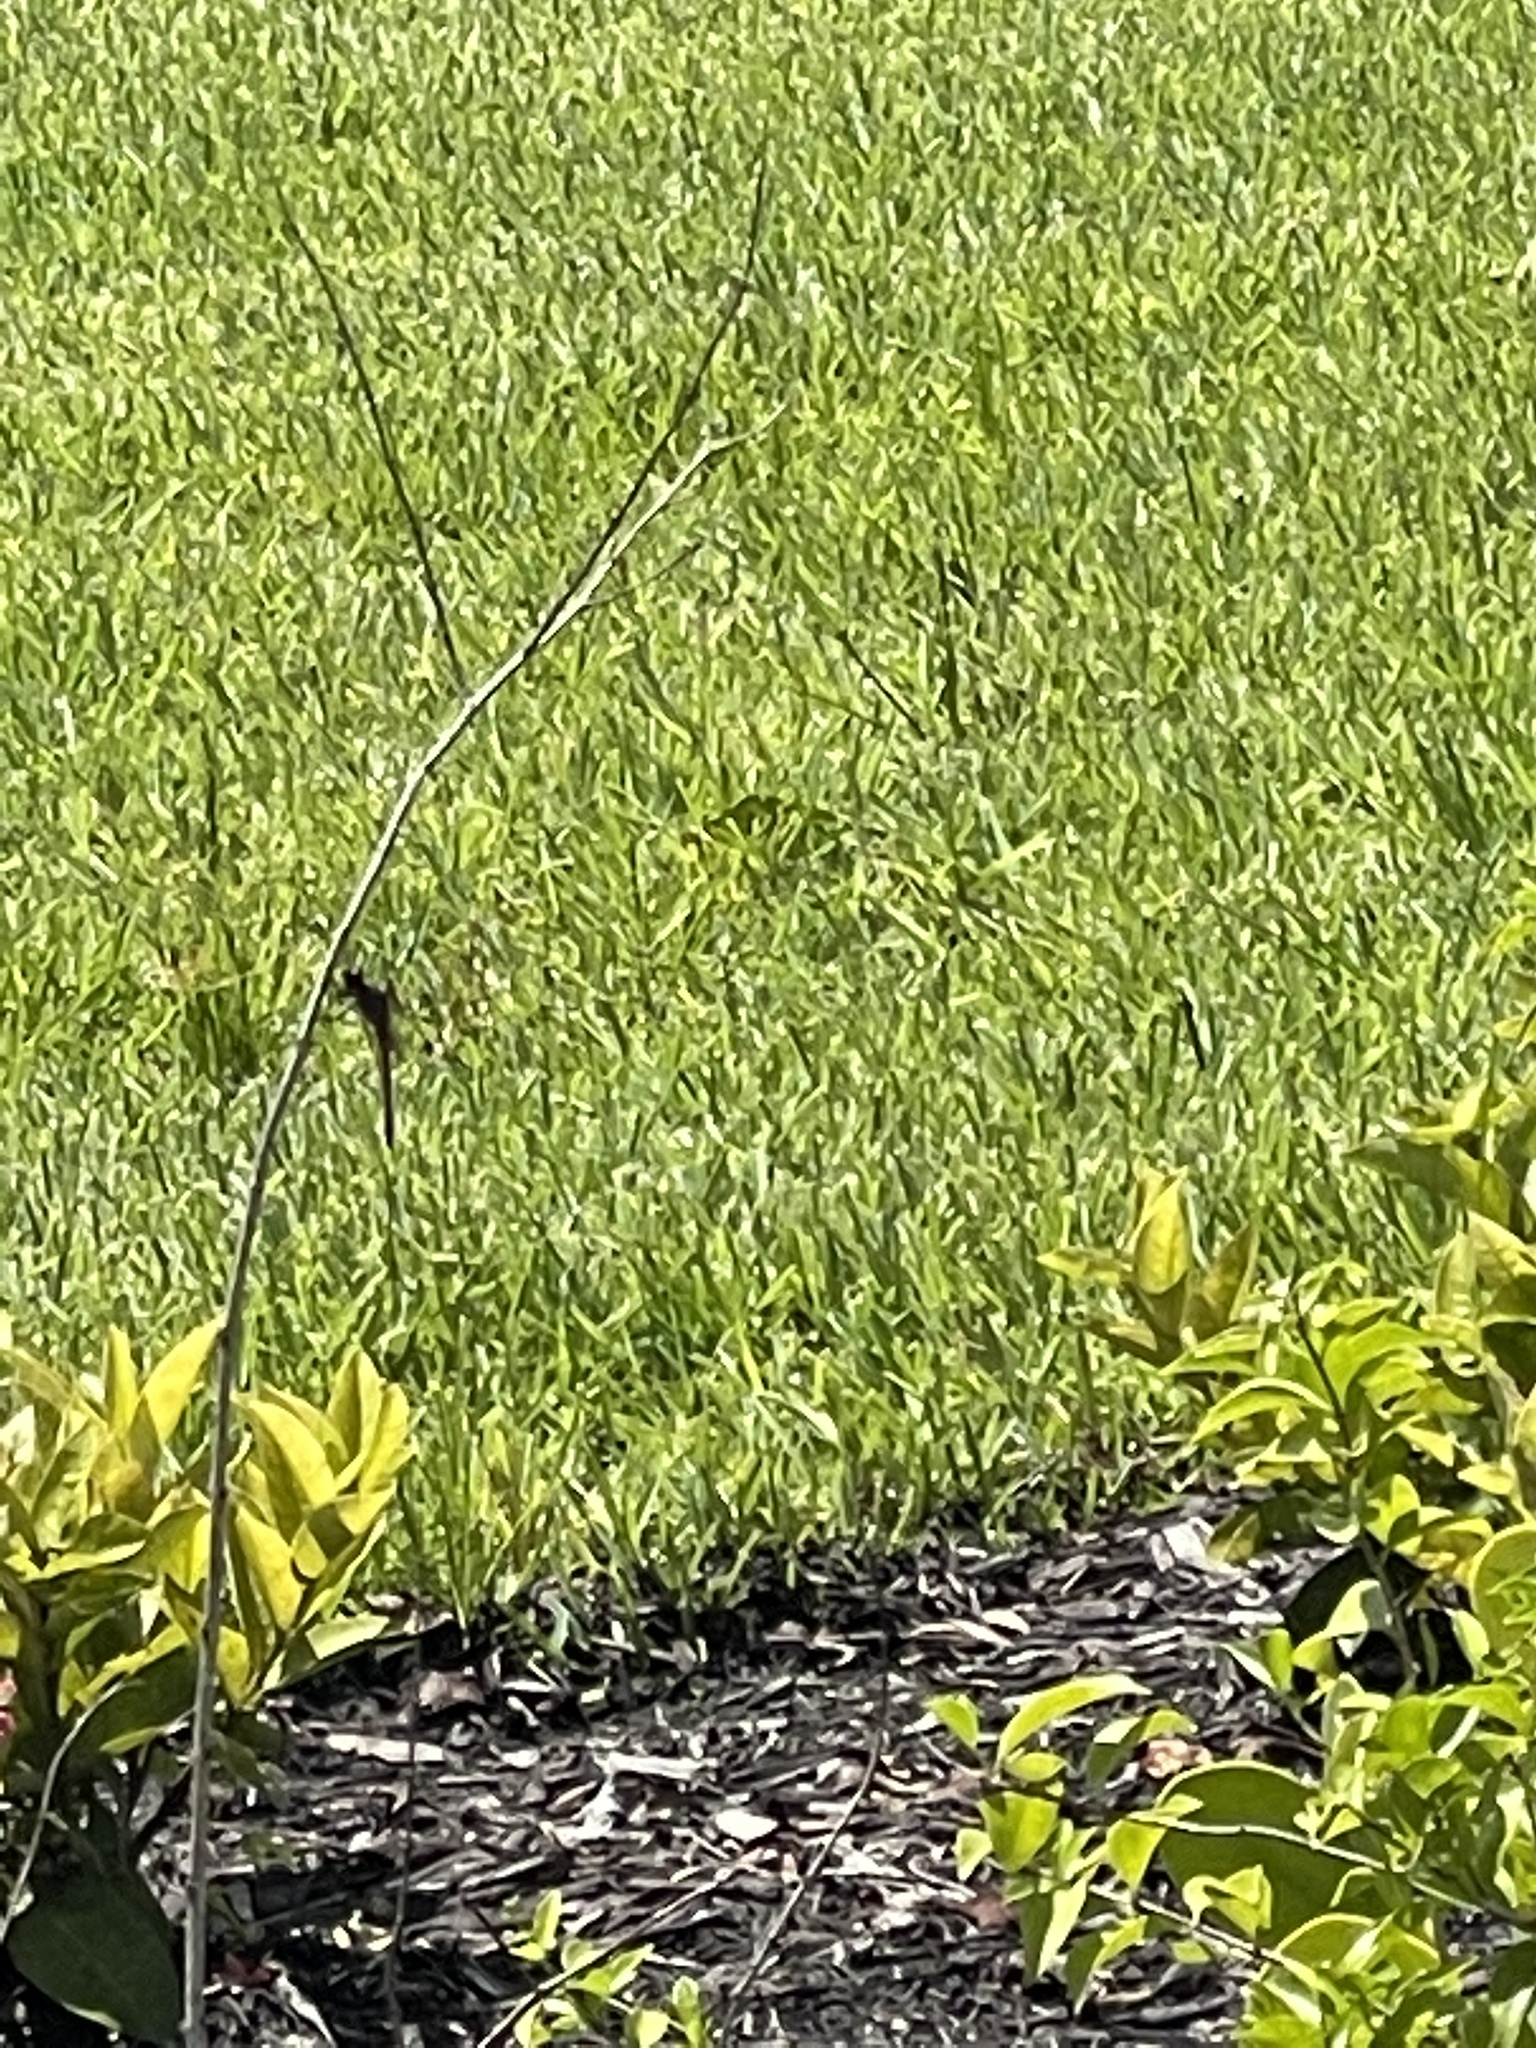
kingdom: Animalia
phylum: Arthropoda
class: Insecta
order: Odonata
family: Libellulidae
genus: Orthemis
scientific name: Orthemis ferruginea
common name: Roseate skimmer
